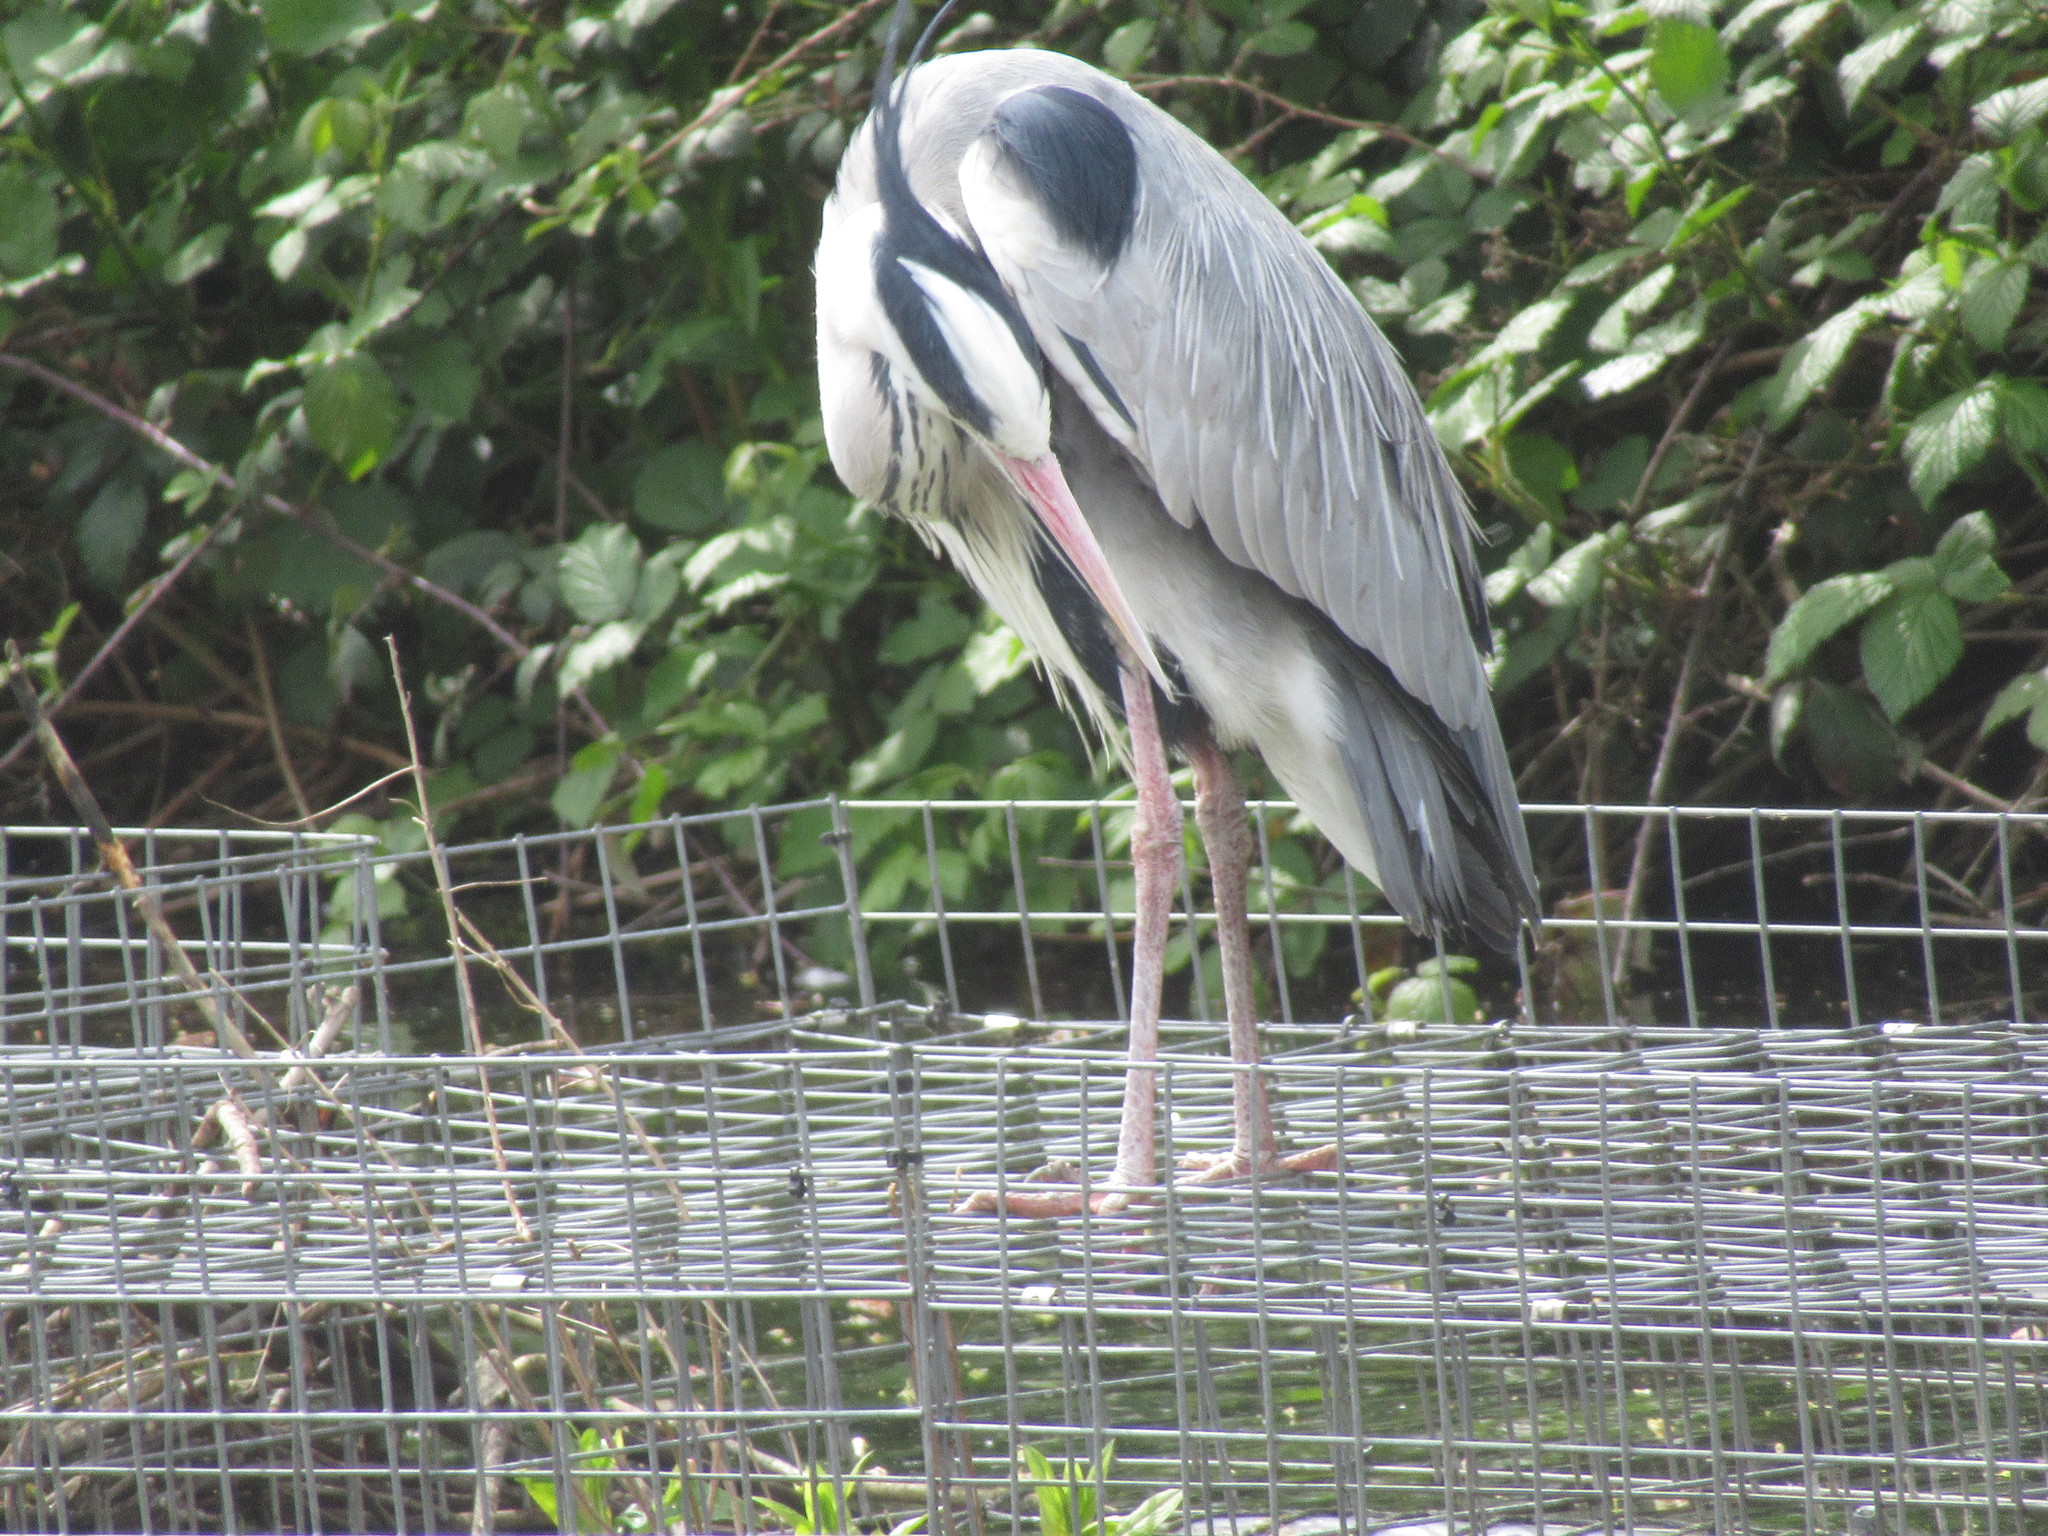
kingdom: Animalia
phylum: Chordata
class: Aves
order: Pelecaniformes
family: Ardeidae
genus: Ardea
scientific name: Ardea cinerea
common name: Grey heron
